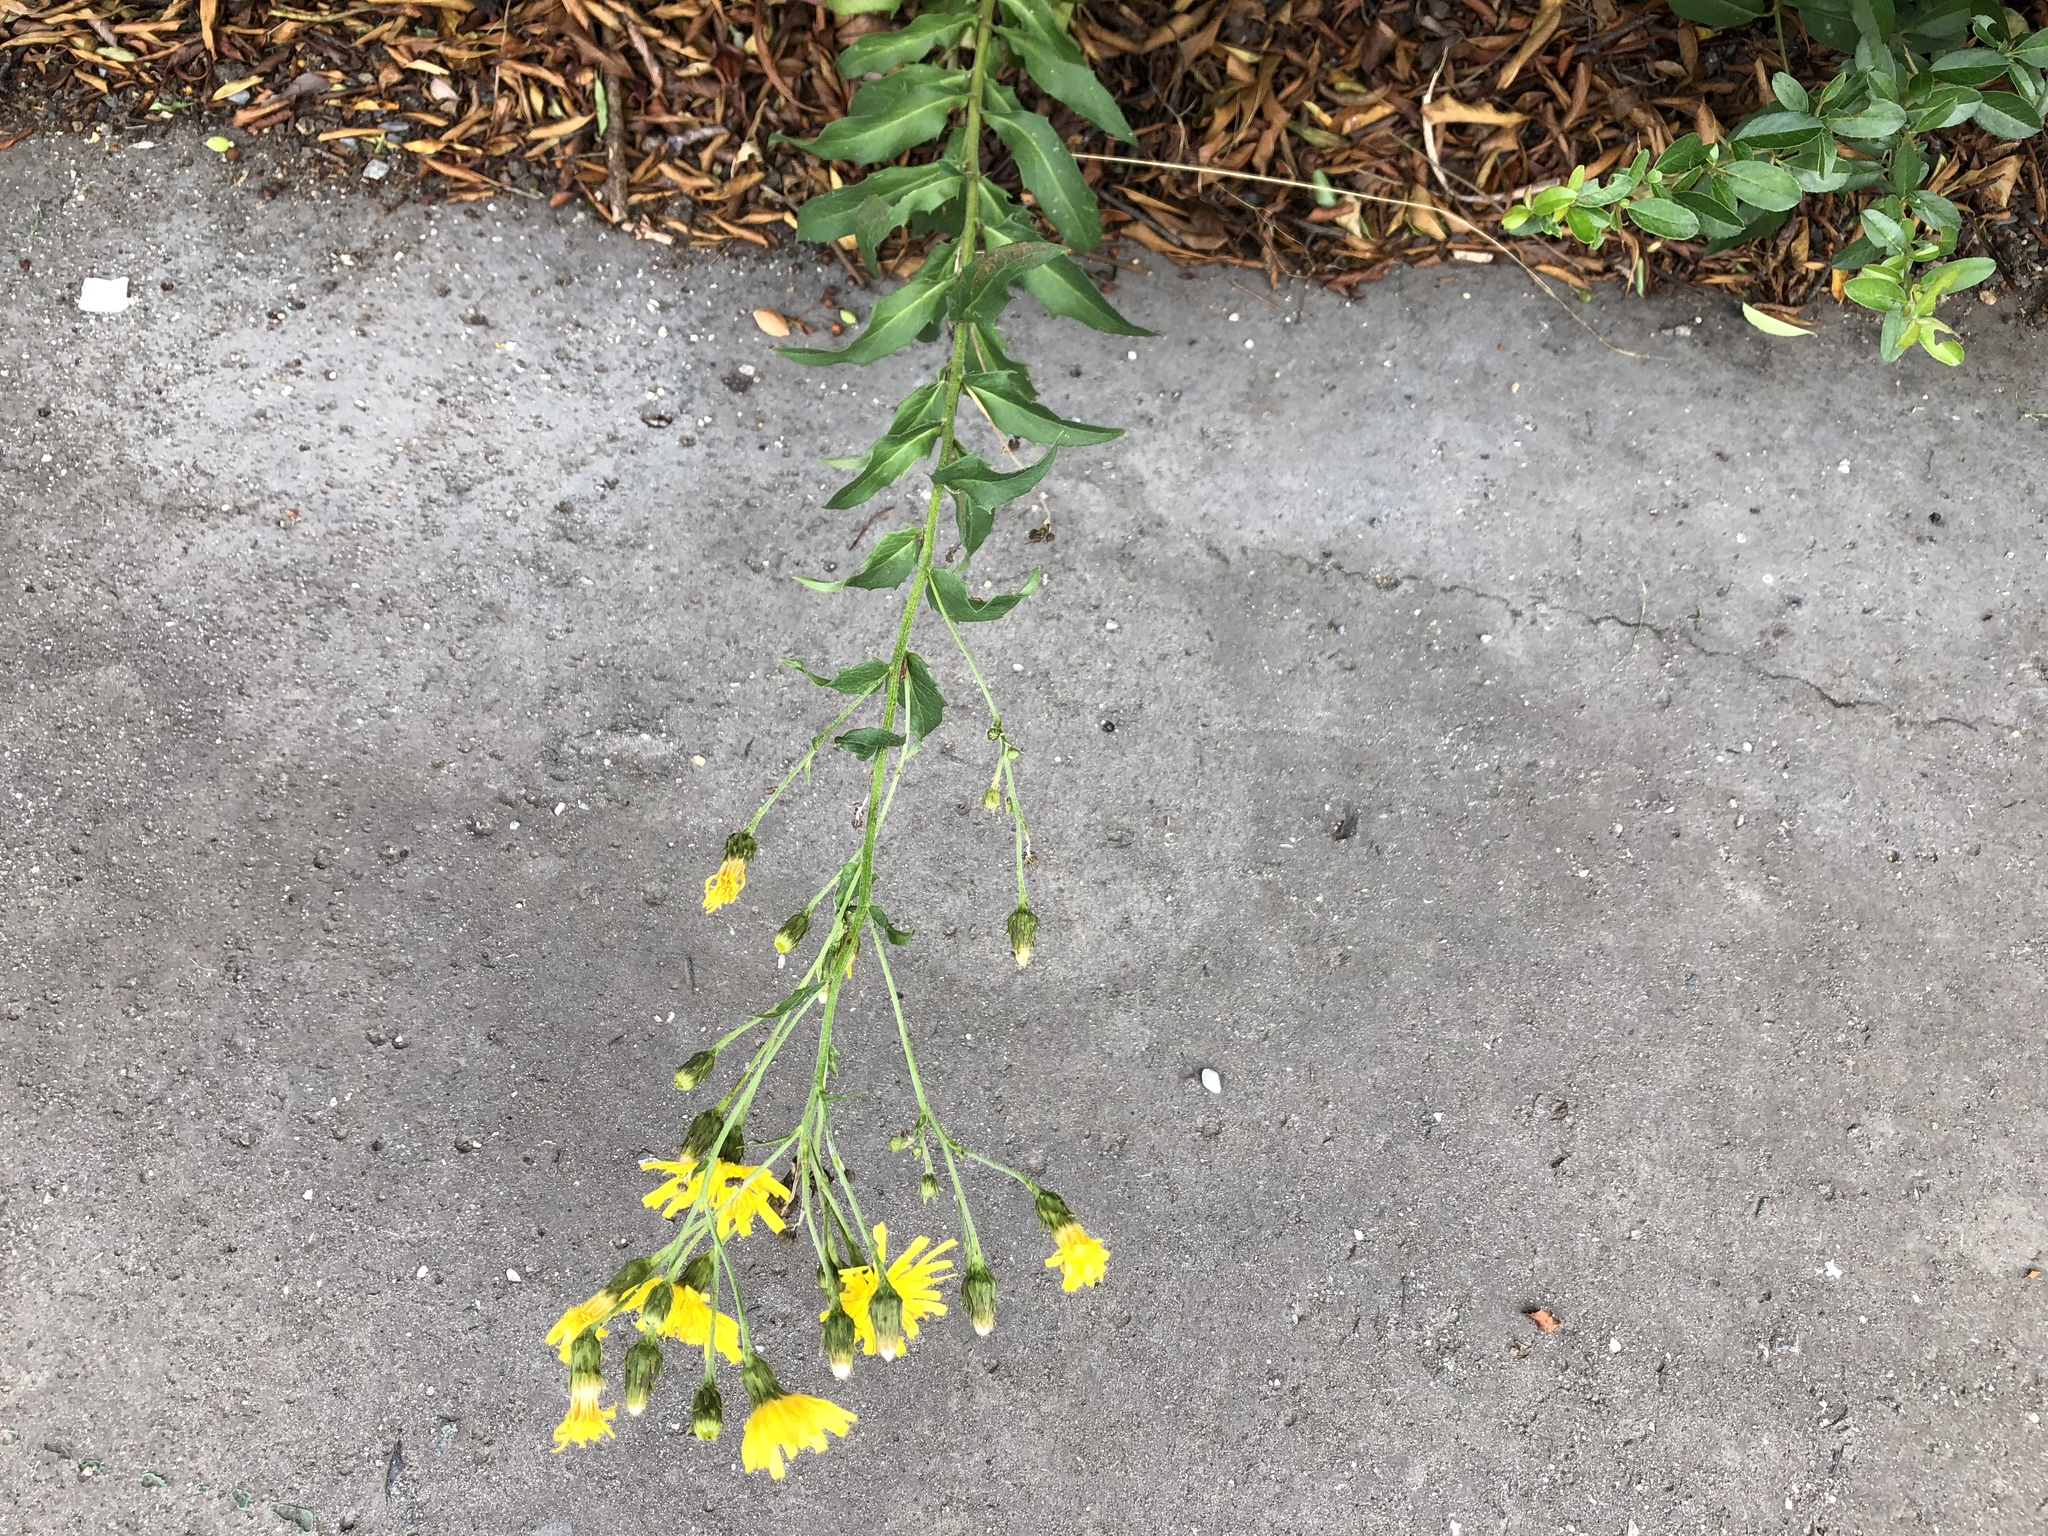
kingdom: Plantae
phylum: Tracheophyta
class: Magnoliopsida
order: Asterales
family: Asteraceae
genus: Hieracium
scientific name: Hieracium sabaudum
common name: New england hawkweed
